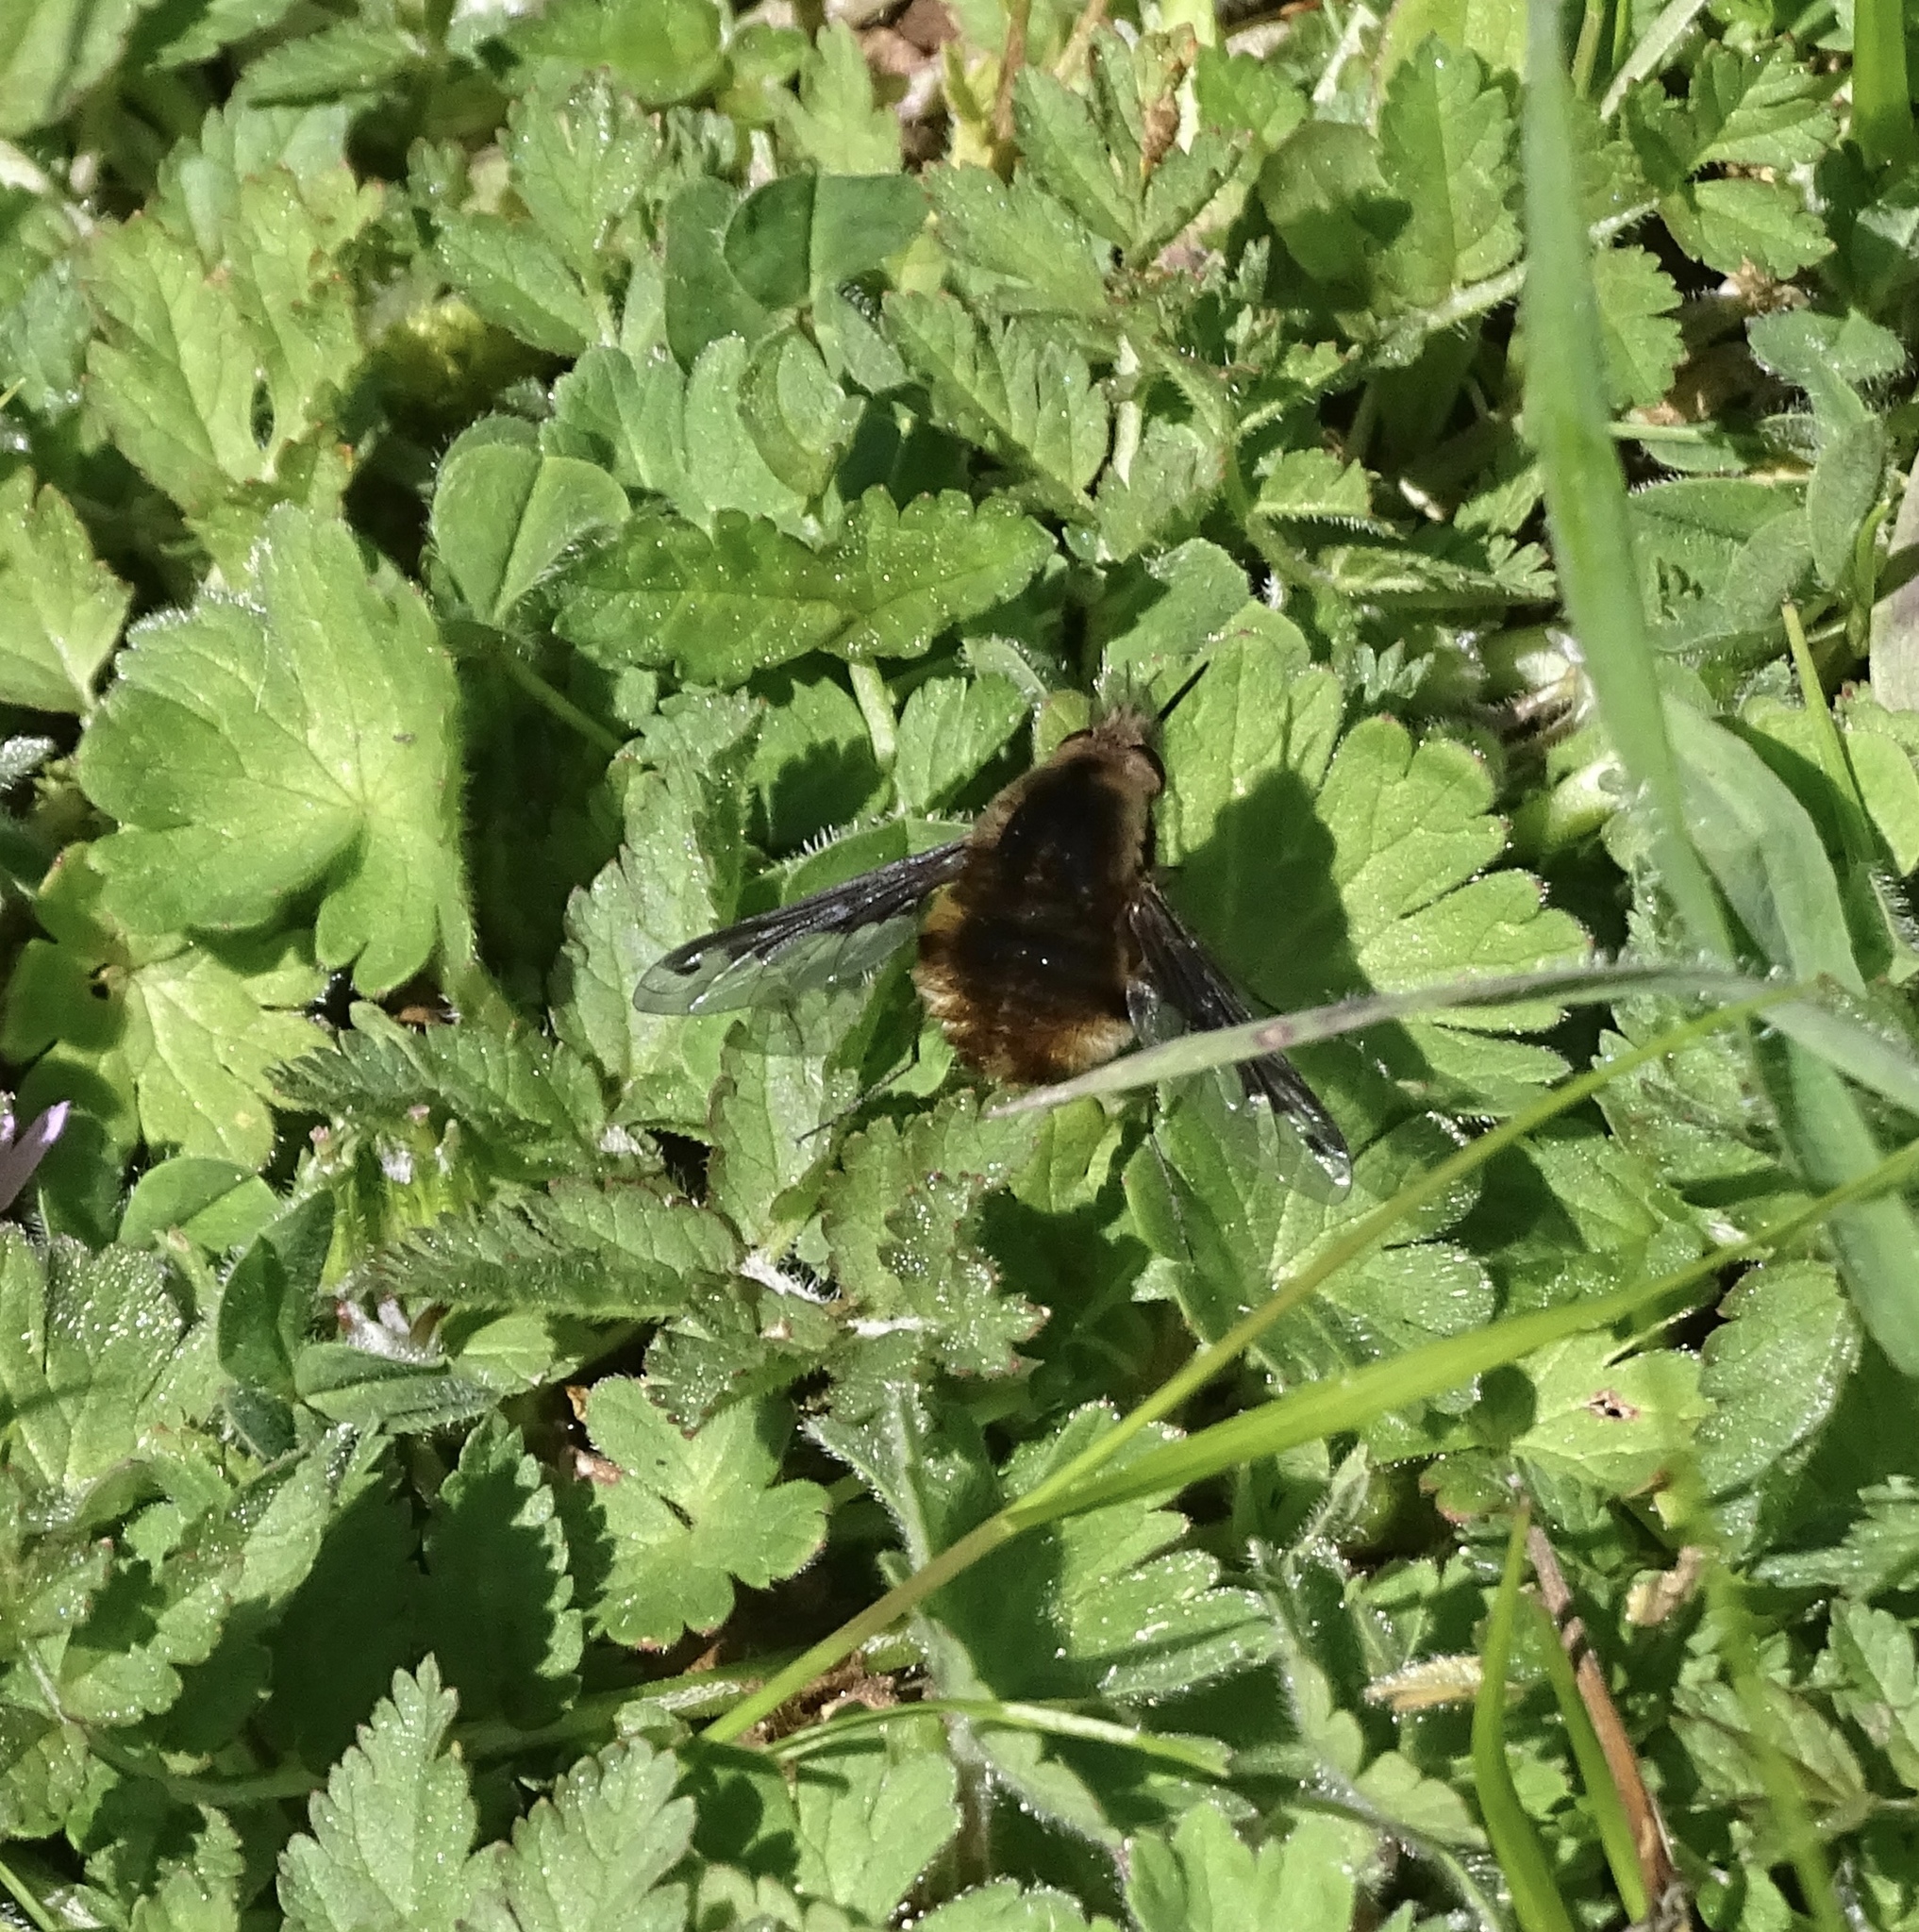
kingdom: Animalia
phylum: Arthropoda
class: Insecta
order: Diptera
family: Bombyliidae
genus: Bombylius
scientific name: Bombylius major
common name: Bee fly
